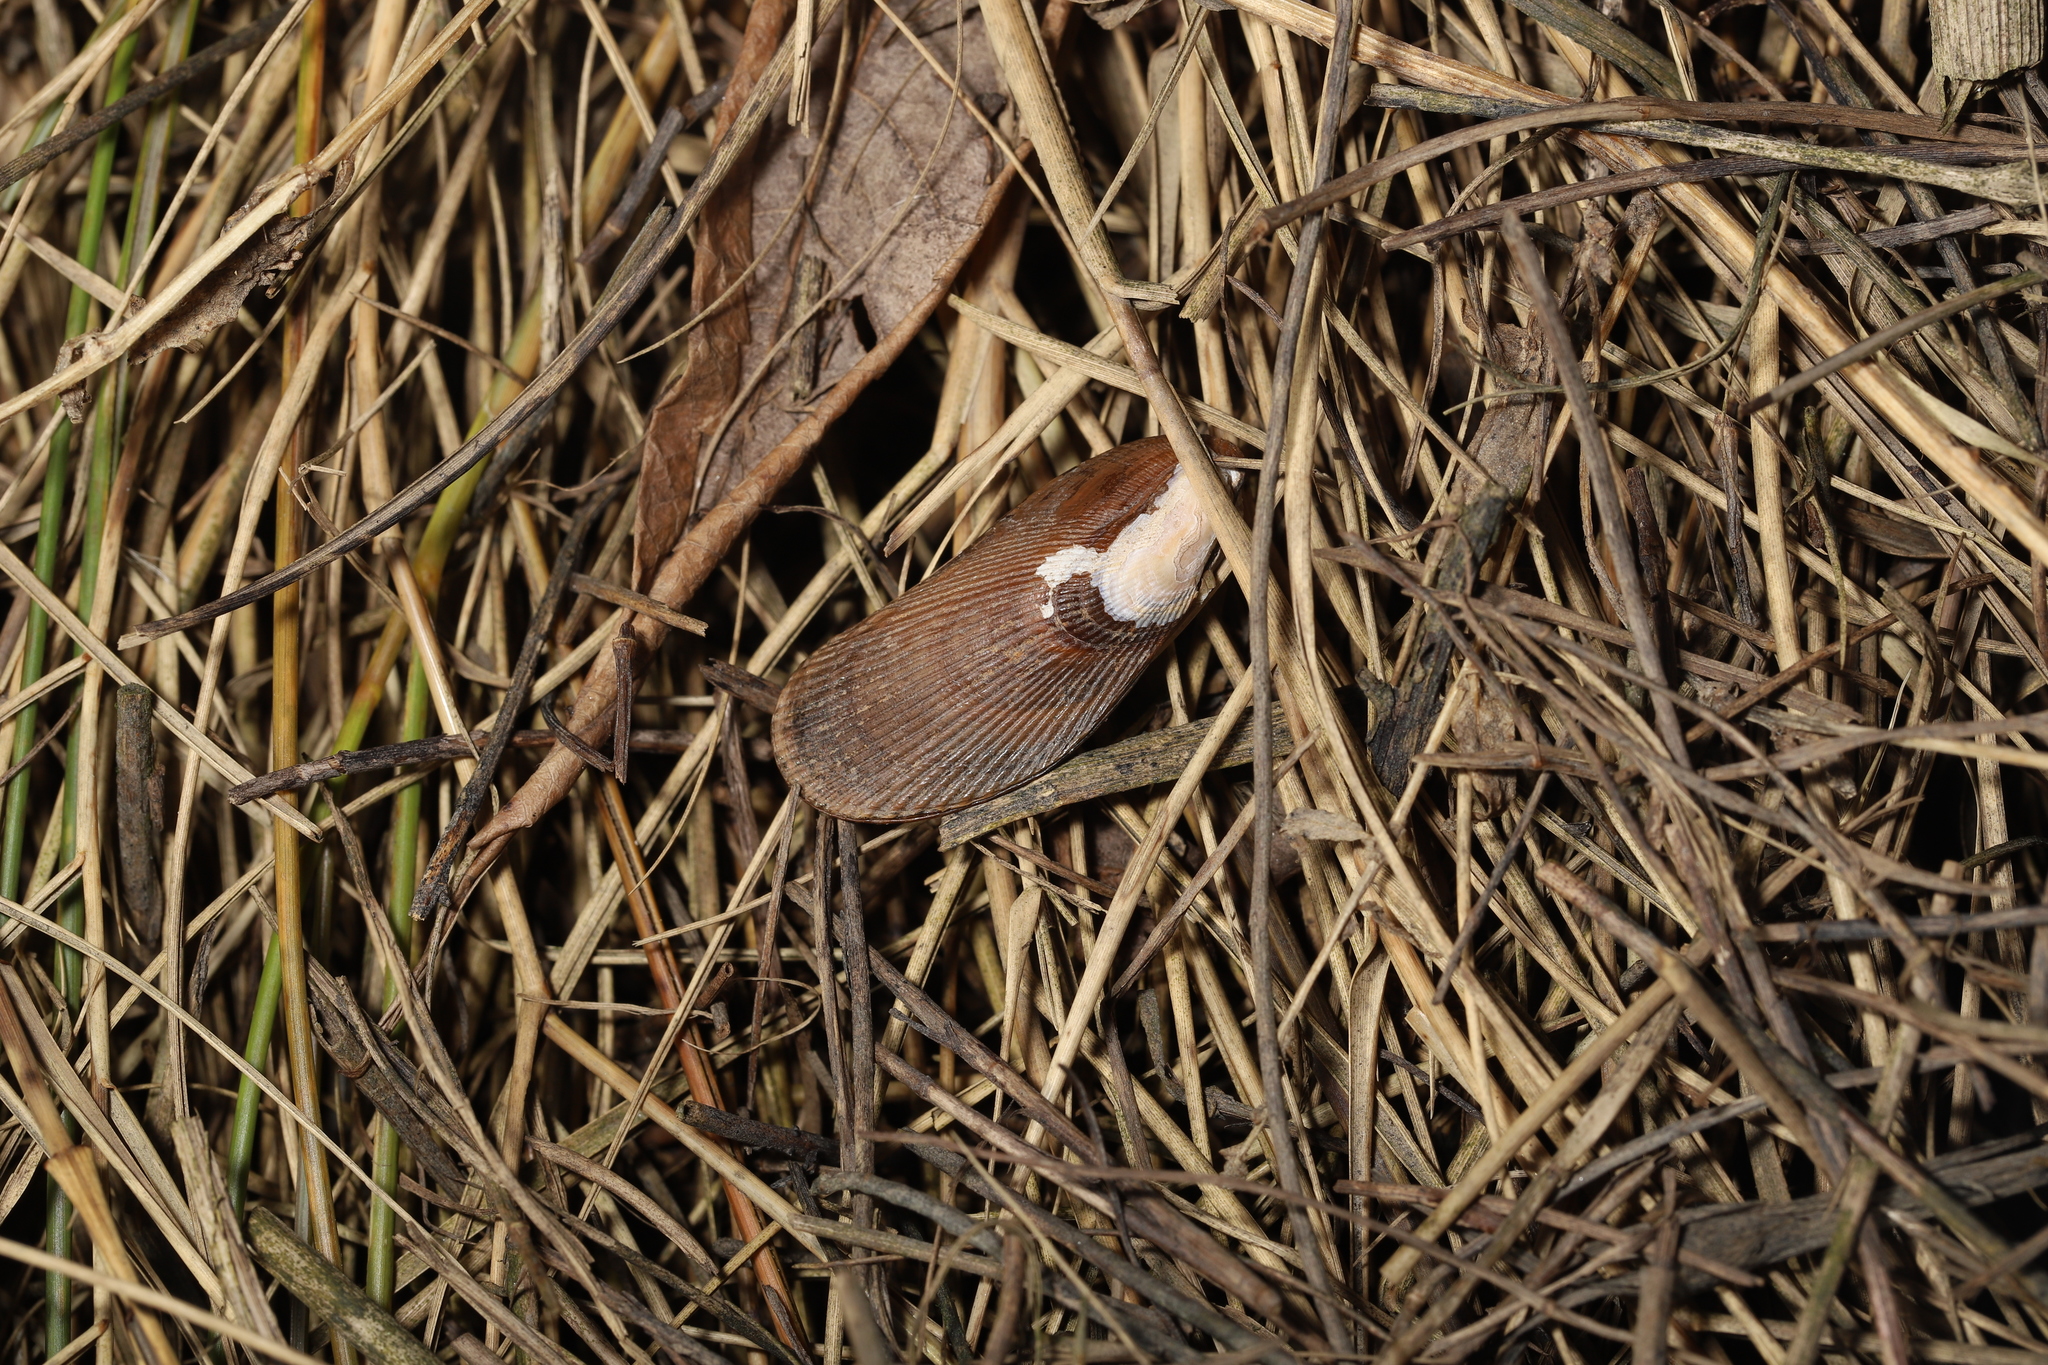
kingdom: Animalia
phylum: Mollusca
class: Bivalvia
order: Mytilida
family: Mytilidae
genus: Geukensia
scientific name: Geukensia demissa
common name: Ribbed mussel
